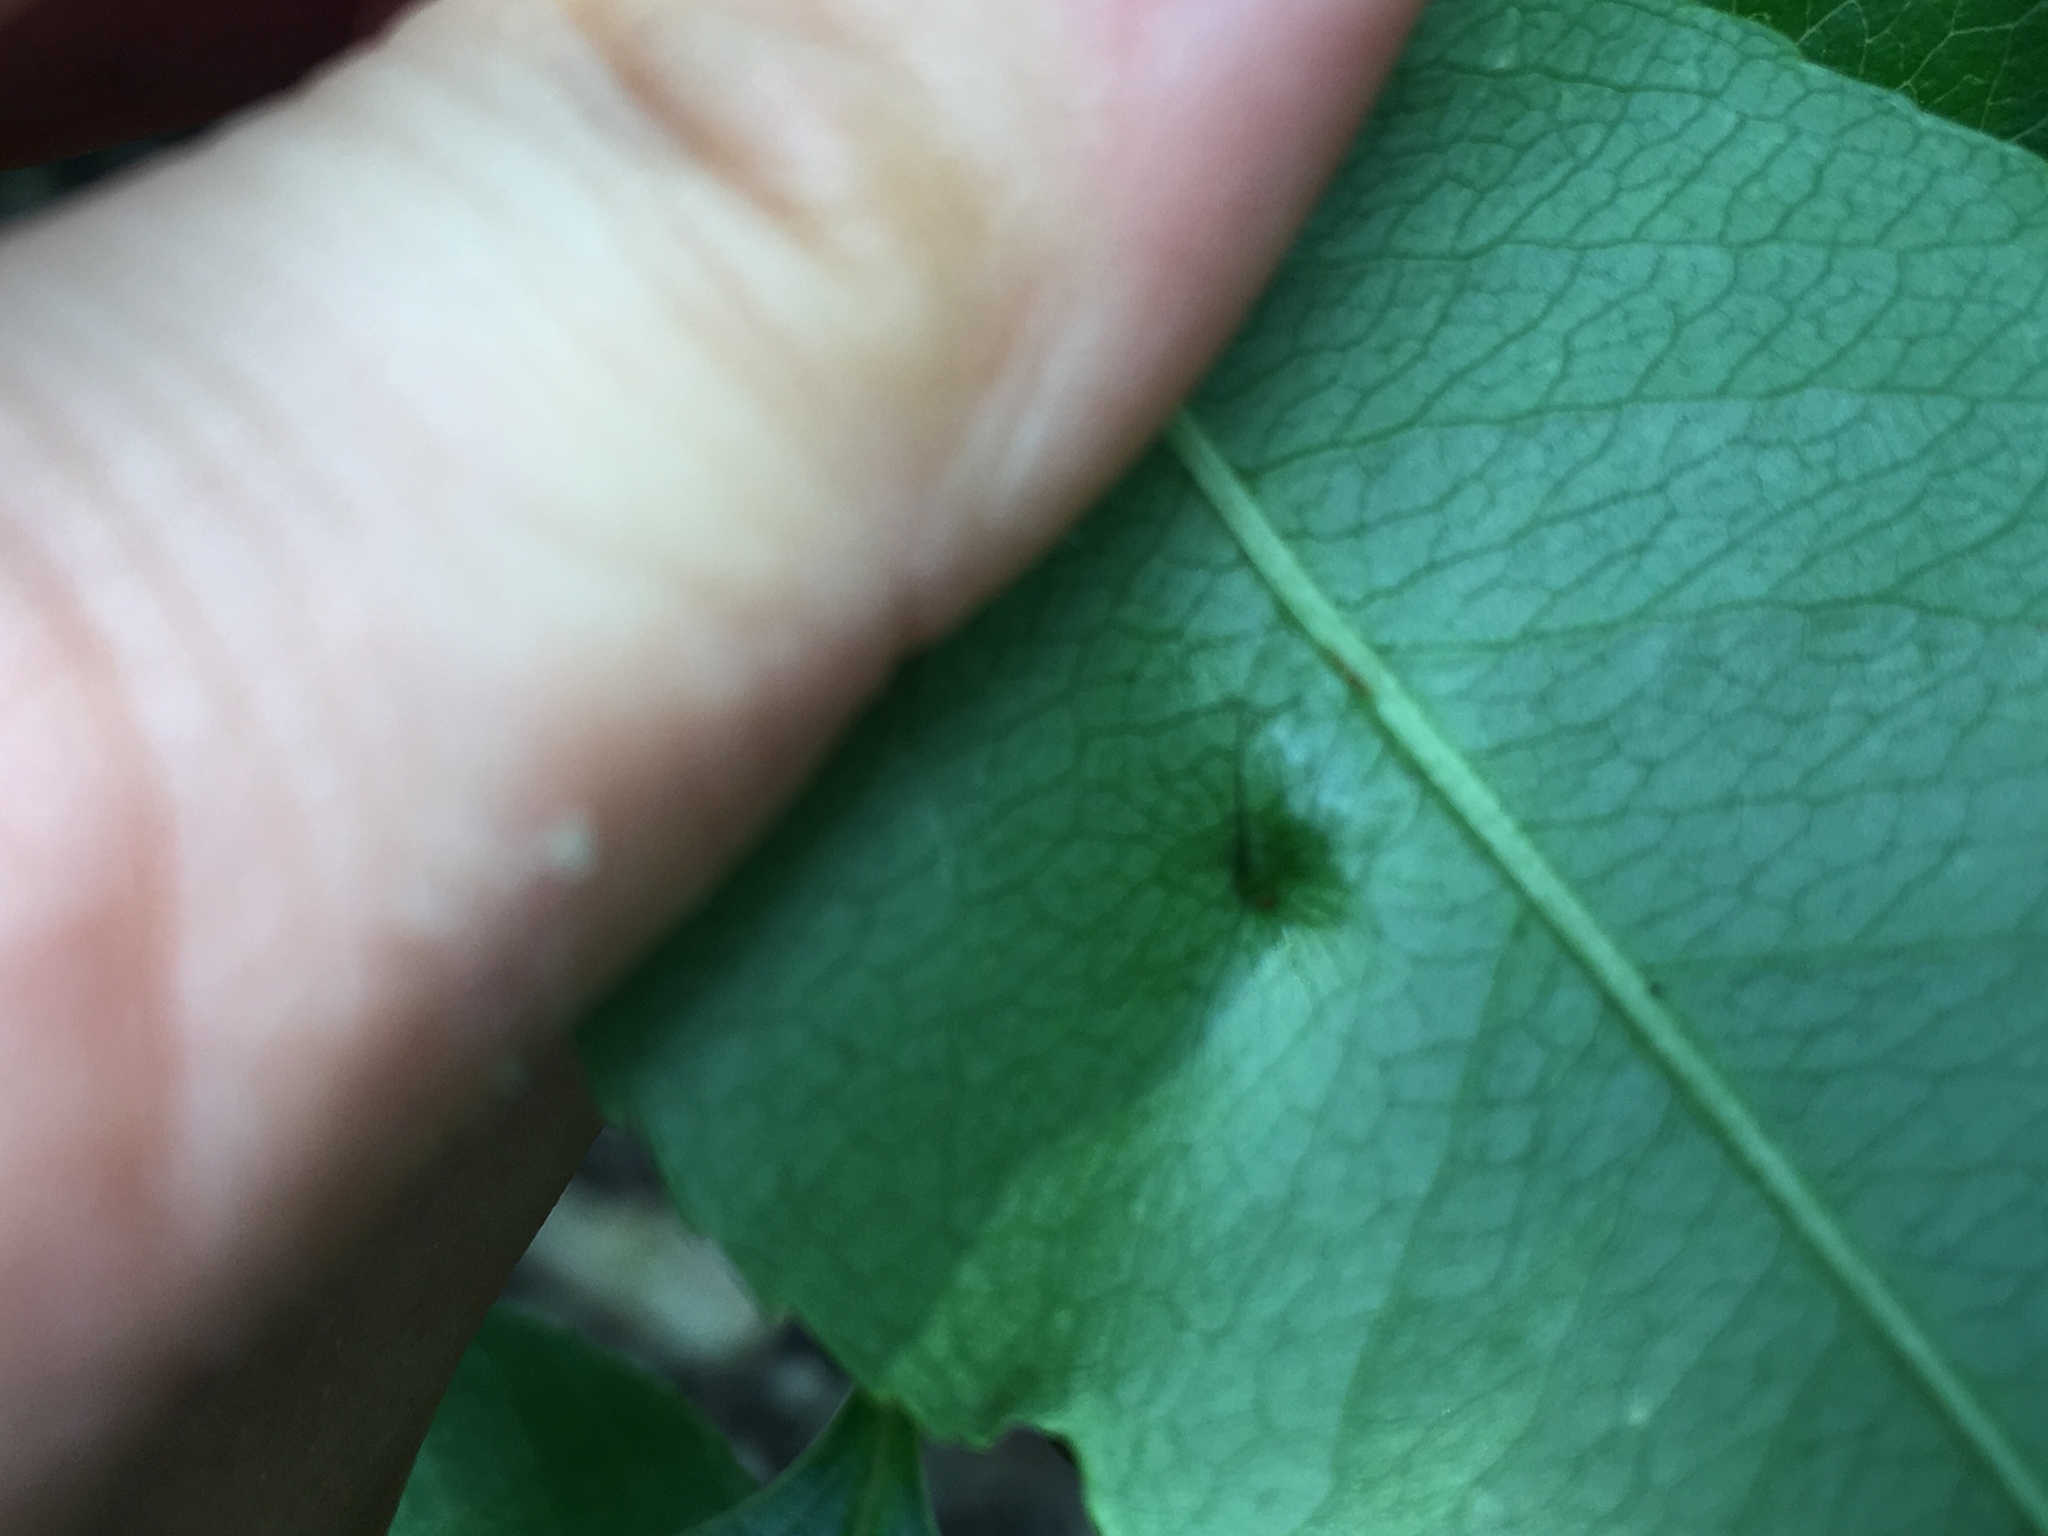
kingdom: Animalia
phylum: Arthropoda
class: Arachnida
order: Trombidiformes
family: Eriophyidae
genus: Eriophyes
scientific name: Eriophyes
